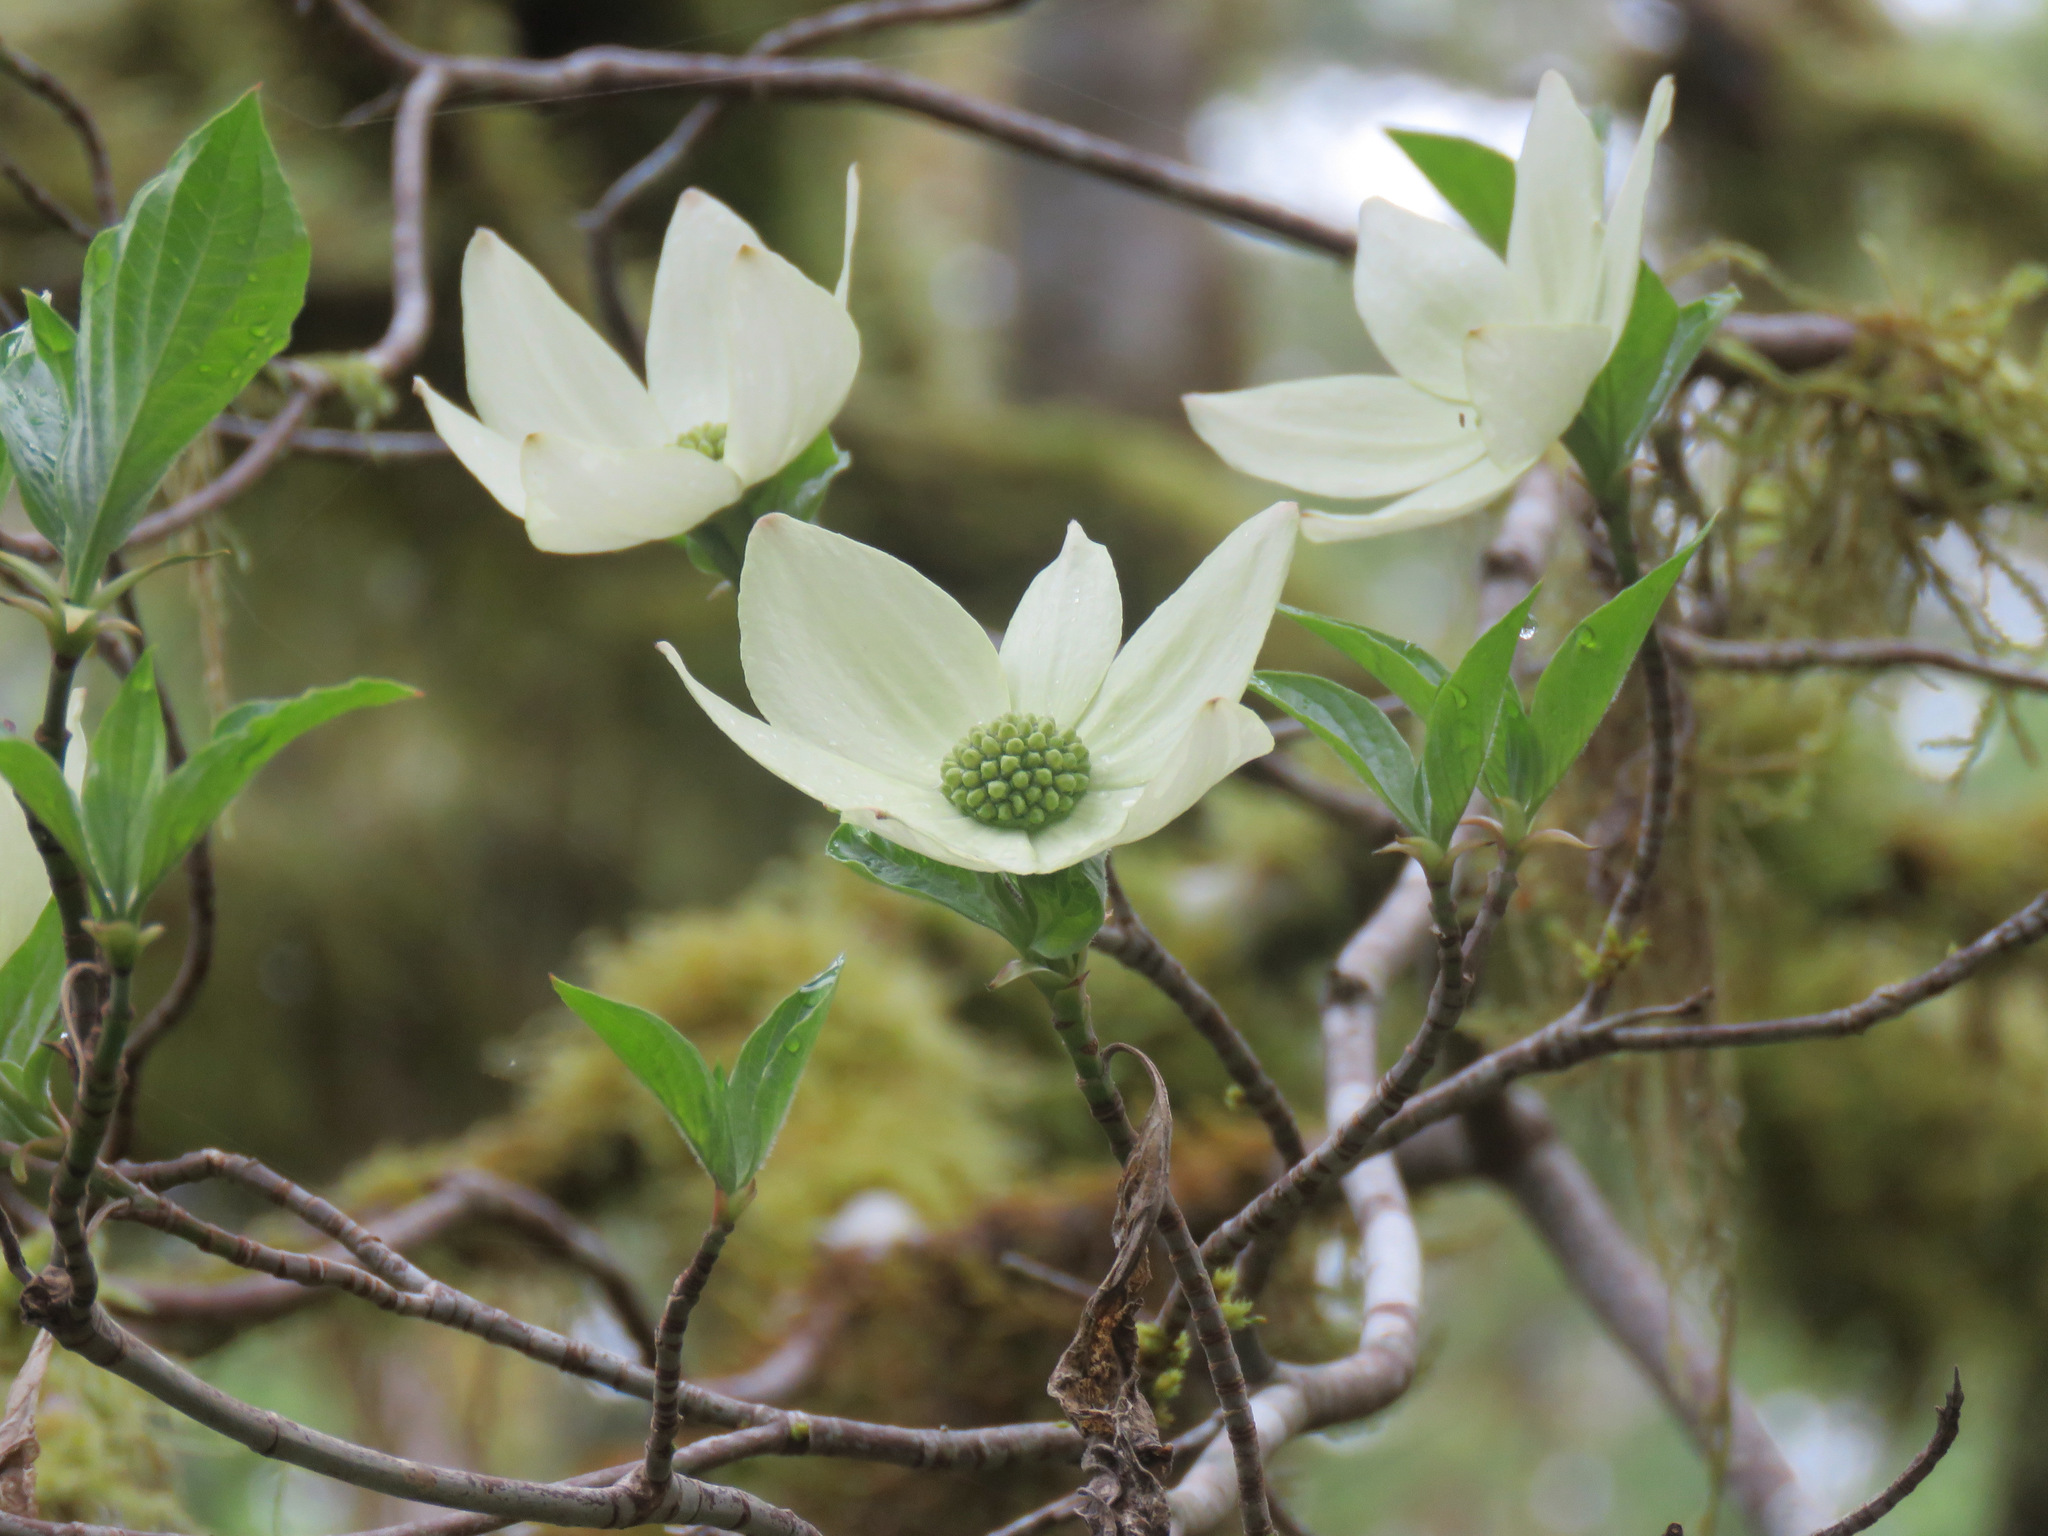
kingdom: Plantae
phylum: Tracheophyta
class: Magnoliopsida
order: Cornales
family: Cornaceae
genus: Cornus
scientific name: Cornus nuttallii
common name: Pacific dogwood
